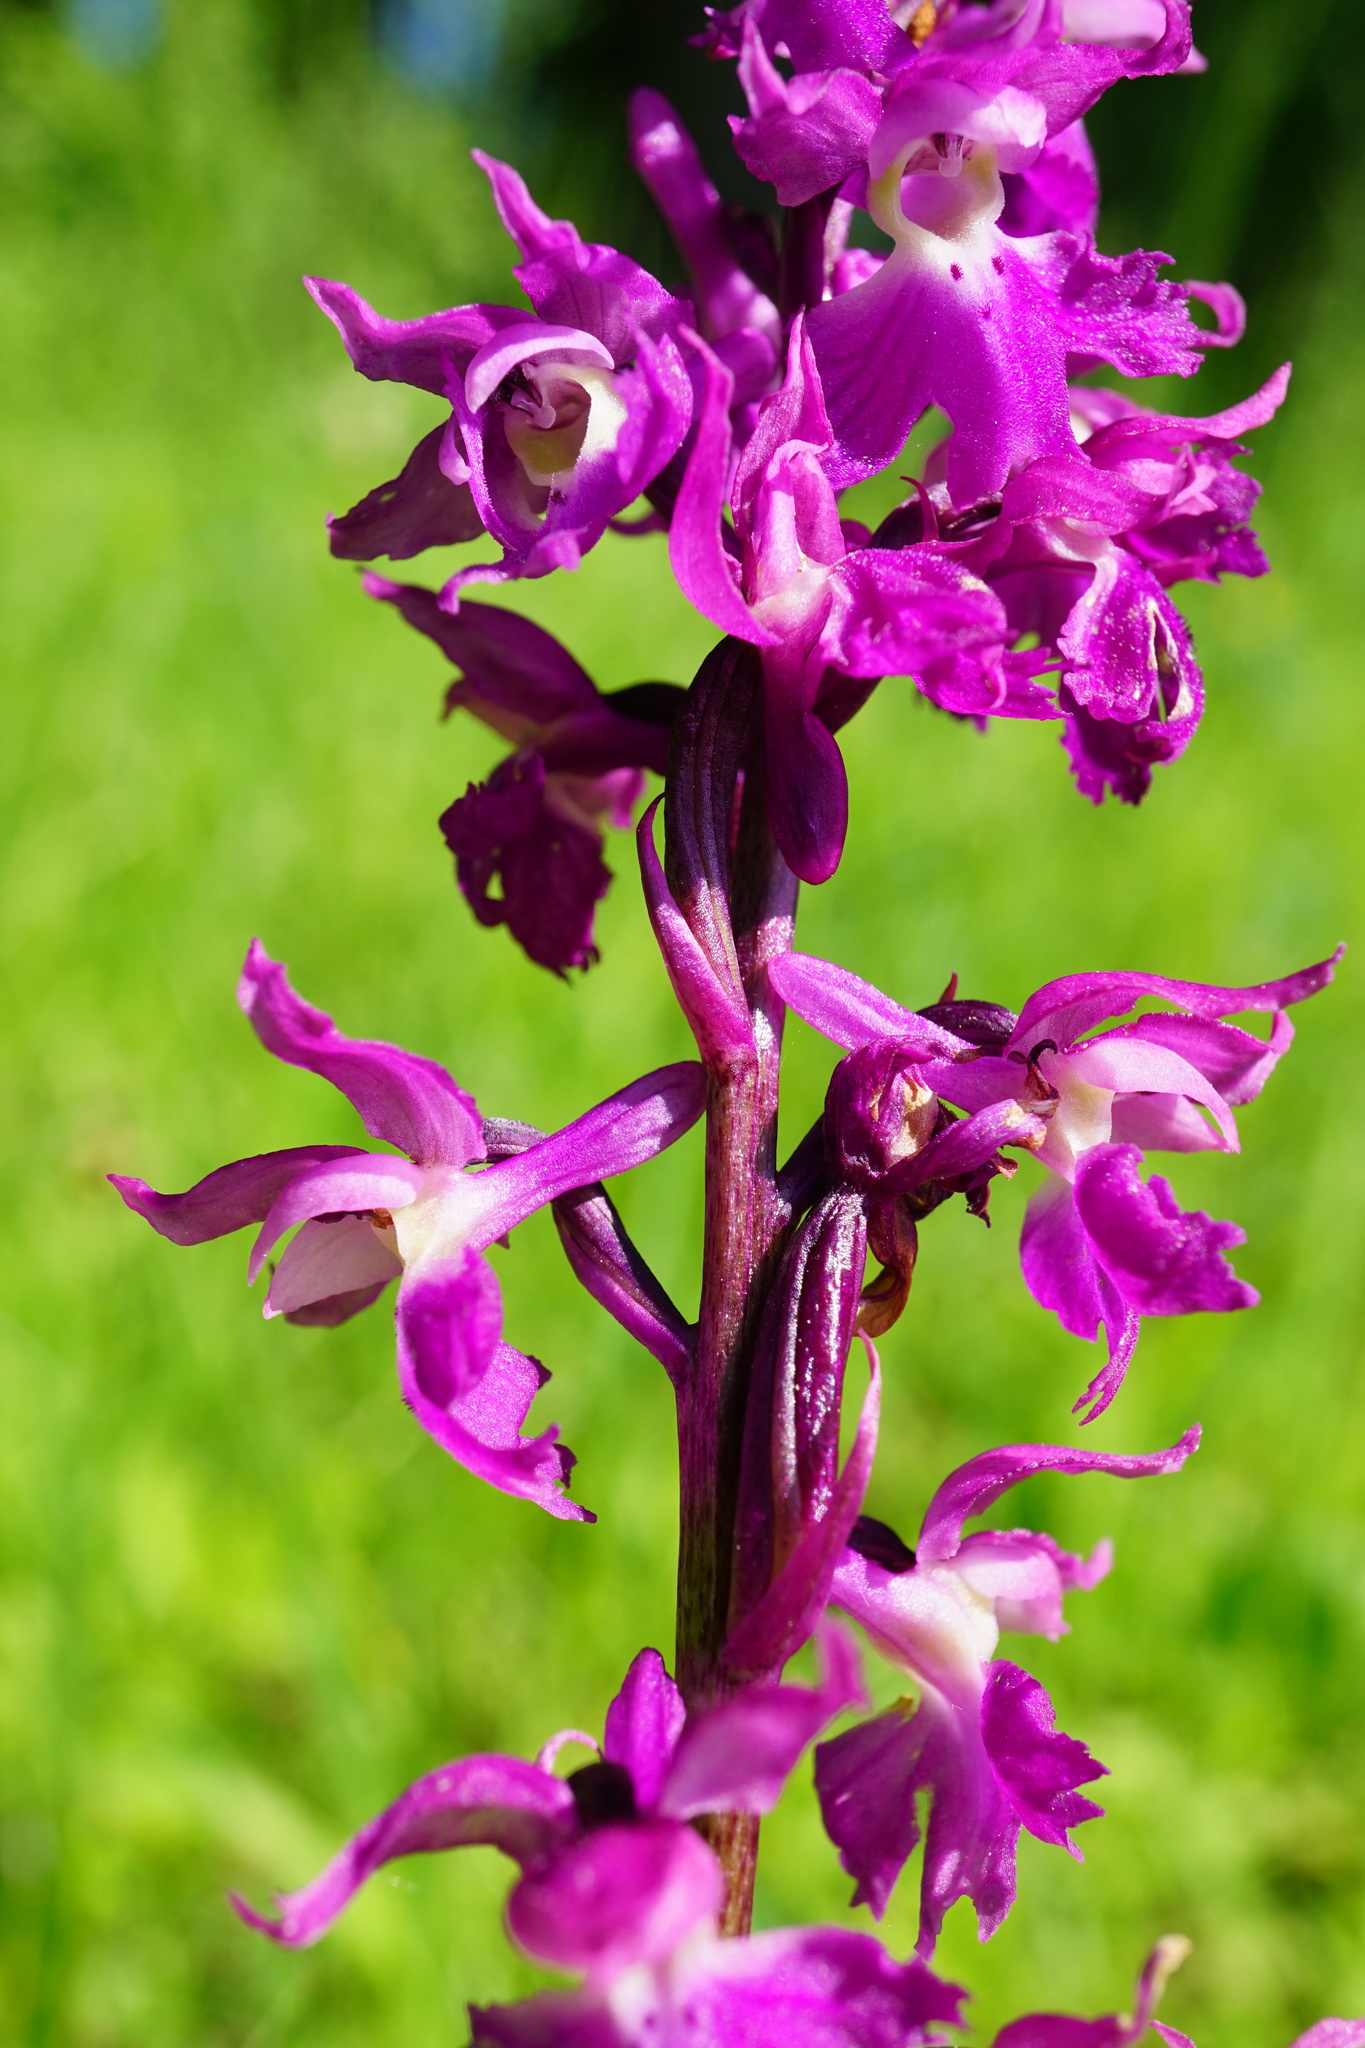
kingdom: Plantae
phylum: Tracheophyta
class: Liliopsida
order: Asparagales
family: Orchidaceae
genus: Orchis
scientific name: Orchis mascula
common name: Early-purple orchid
